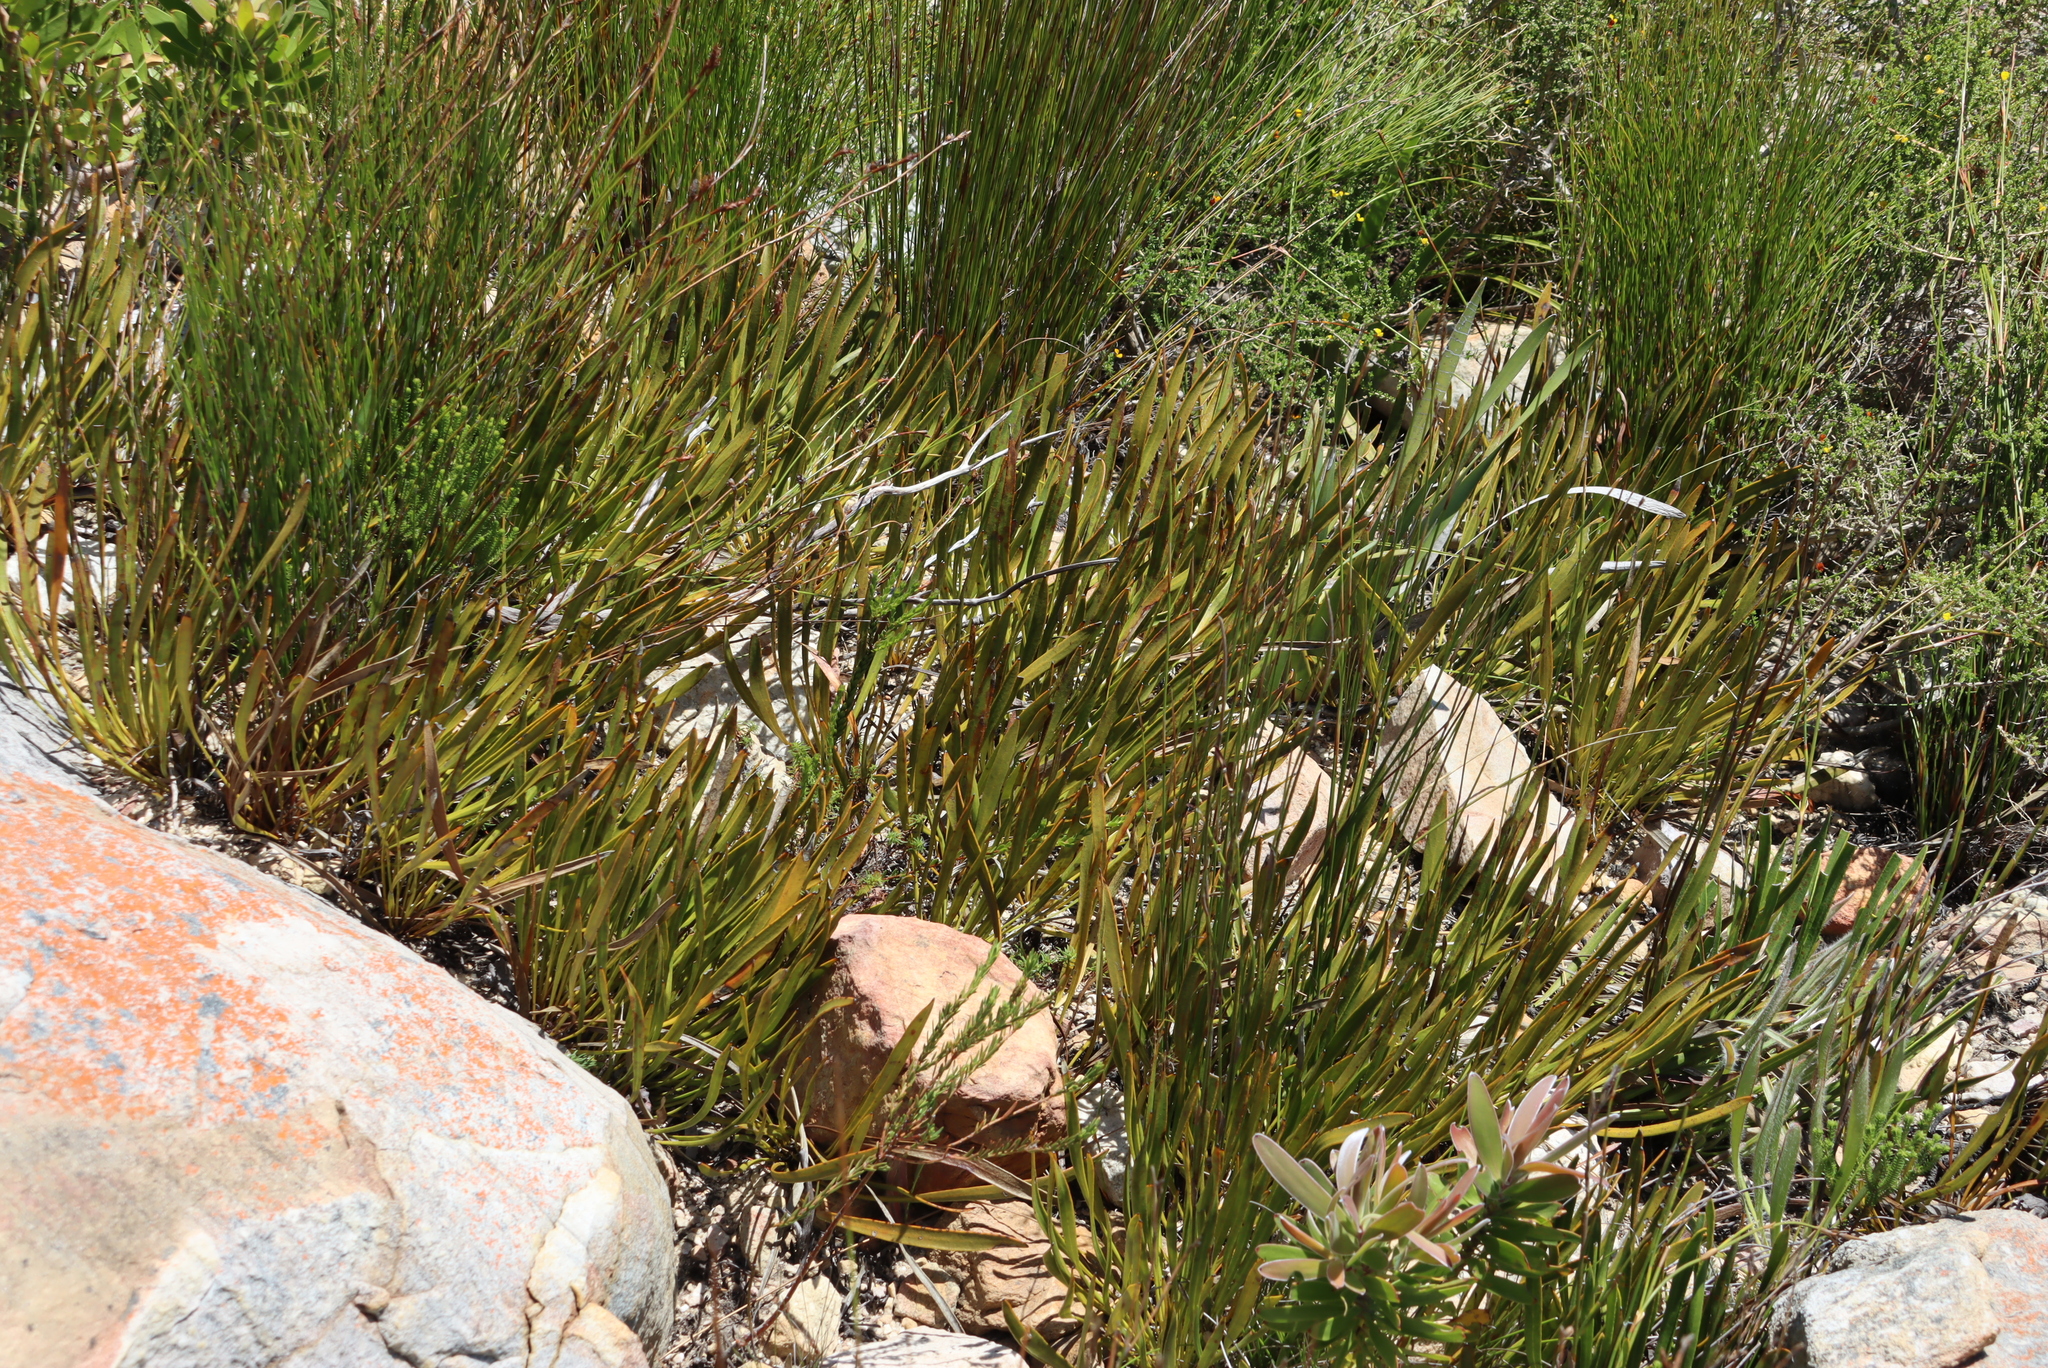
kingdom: Plantae
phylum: Tracheophyta
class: Magnoliopsida
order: Proteales
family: Proteaceae
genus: Protea
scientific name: Protea scabra
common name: Sandpaper-leaf sugarbush
